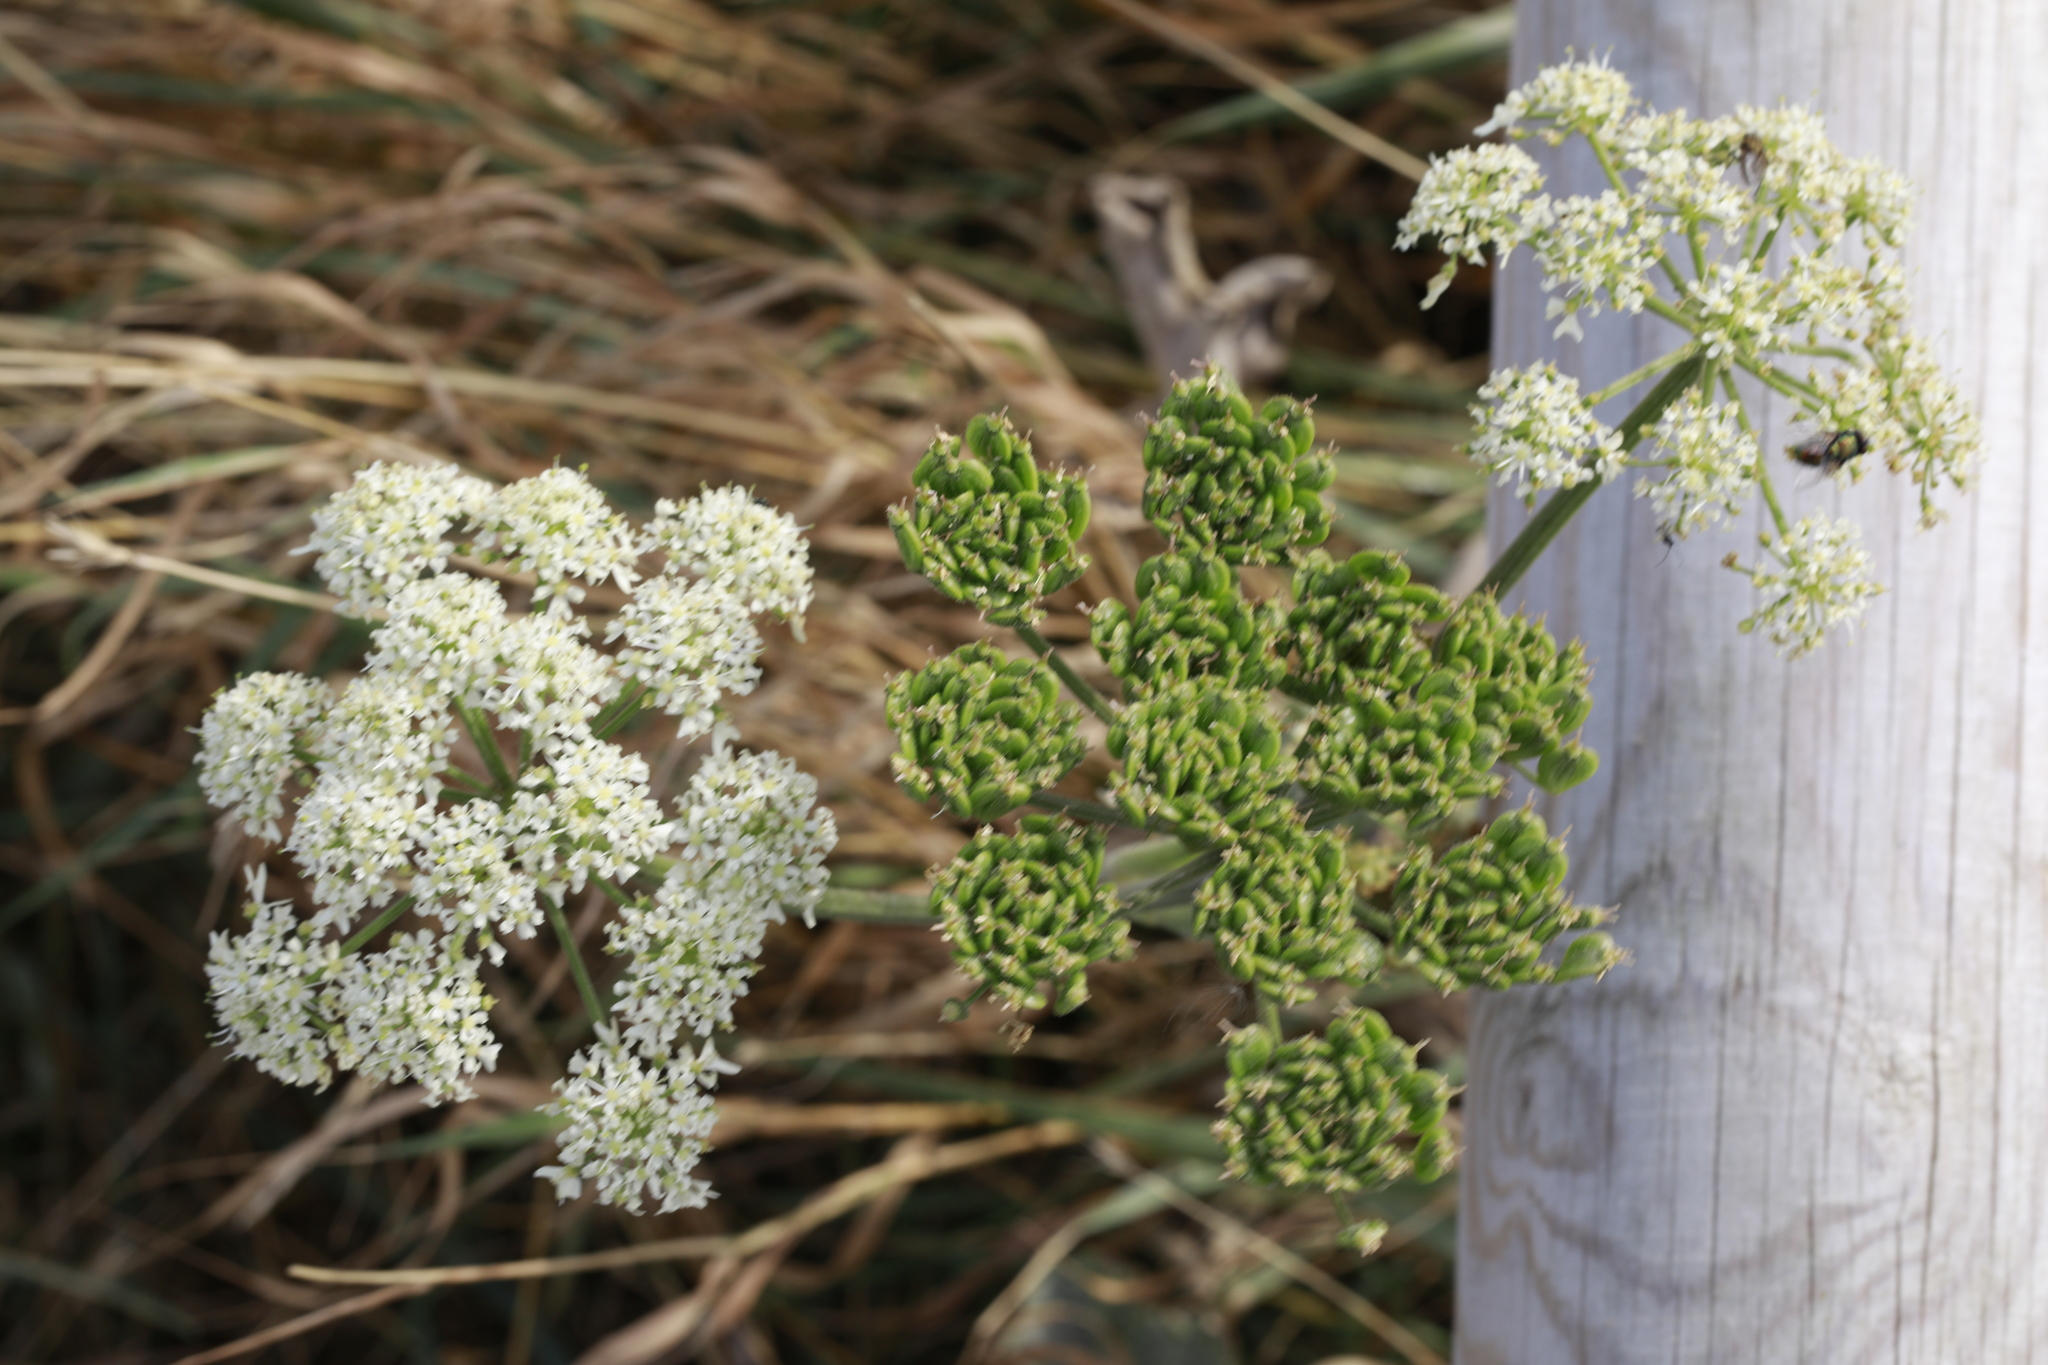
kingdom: Plantae
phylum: Tracheophyta
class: Magnoliopsida
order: Apiales
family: Apiaceae
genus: Heracleum
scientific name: Heracleum sphondylium
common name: Hogweed
